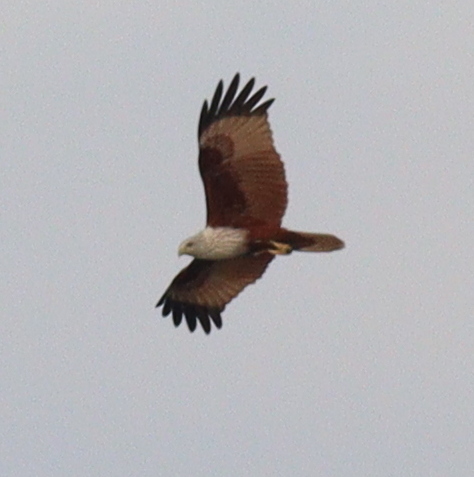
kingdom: Animalia
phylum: Chordata
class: Aves
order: Accipitriformes
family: Accipitridae
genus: Haliastur
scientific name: Haliastur indus
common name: Brahminy kite
